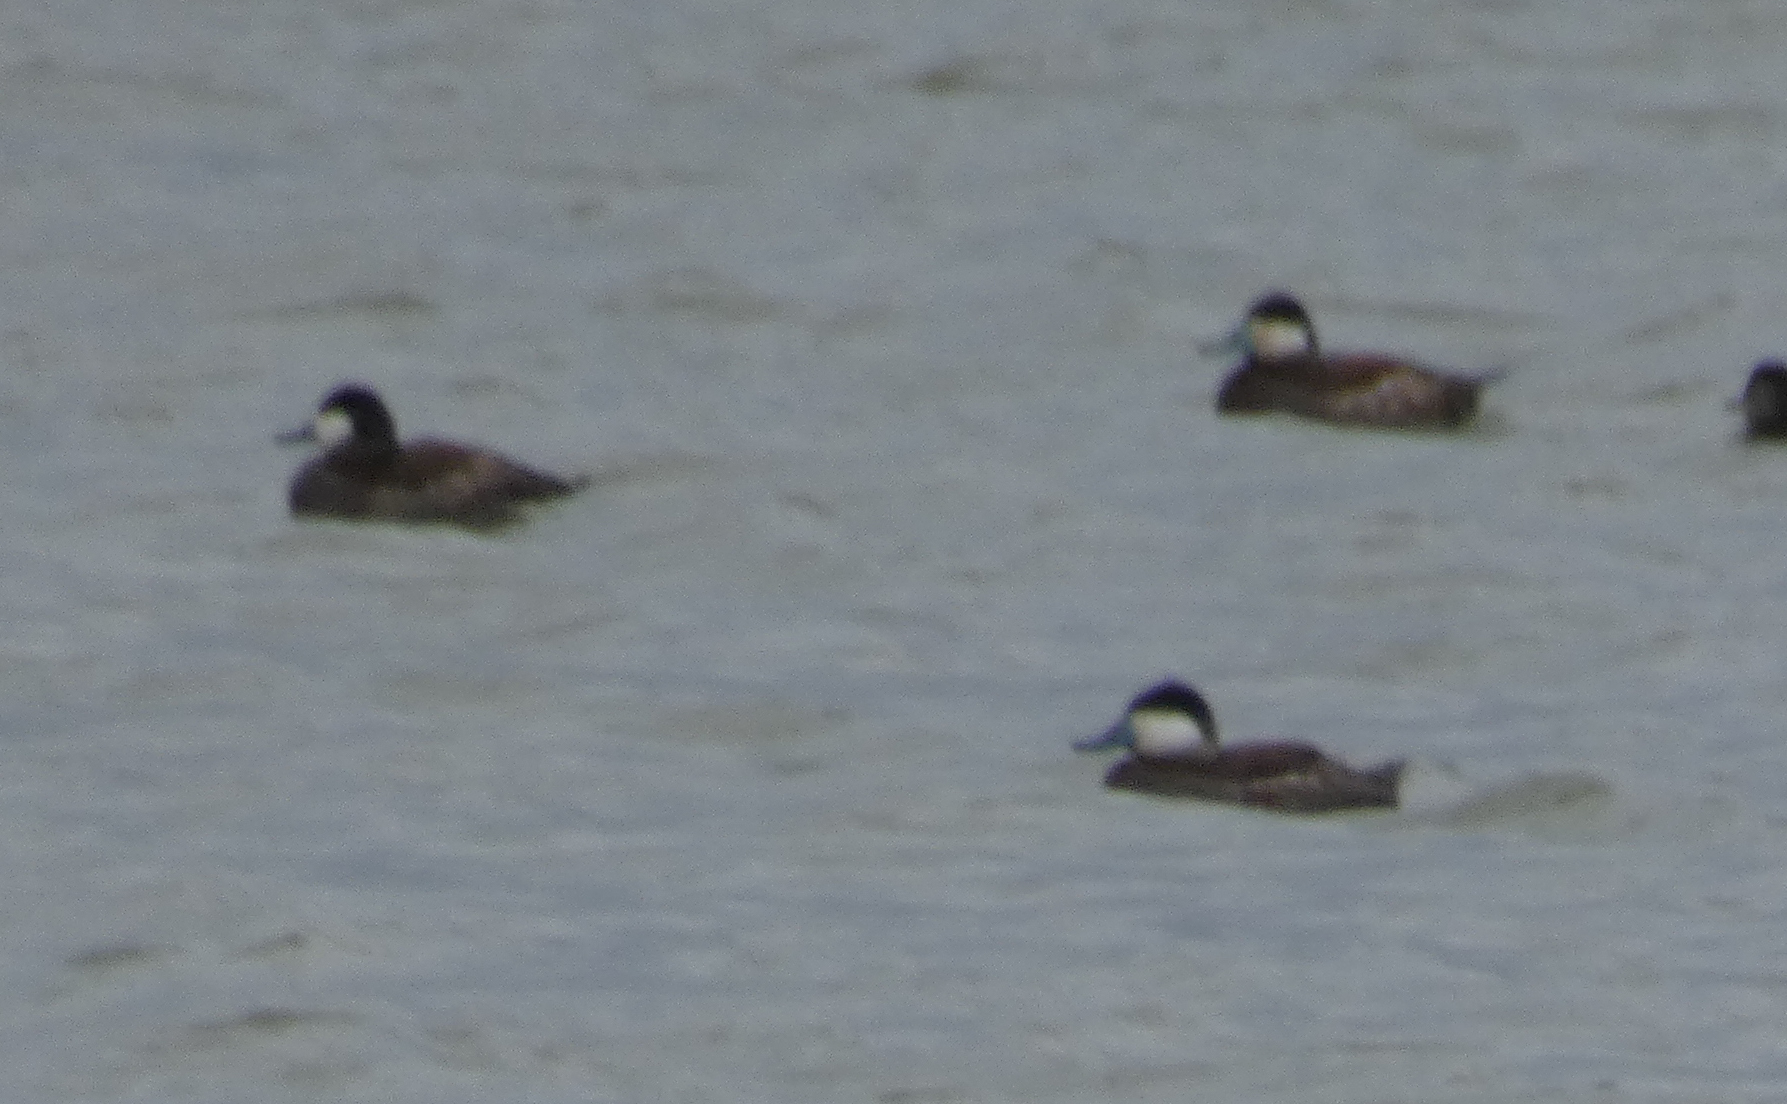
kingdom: Animalia
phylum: Chordata
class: Aves
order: Anseriformes
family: Anatidae
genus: Oxyura
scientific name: Oxyura jamaicensis
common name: Ruddy duck
